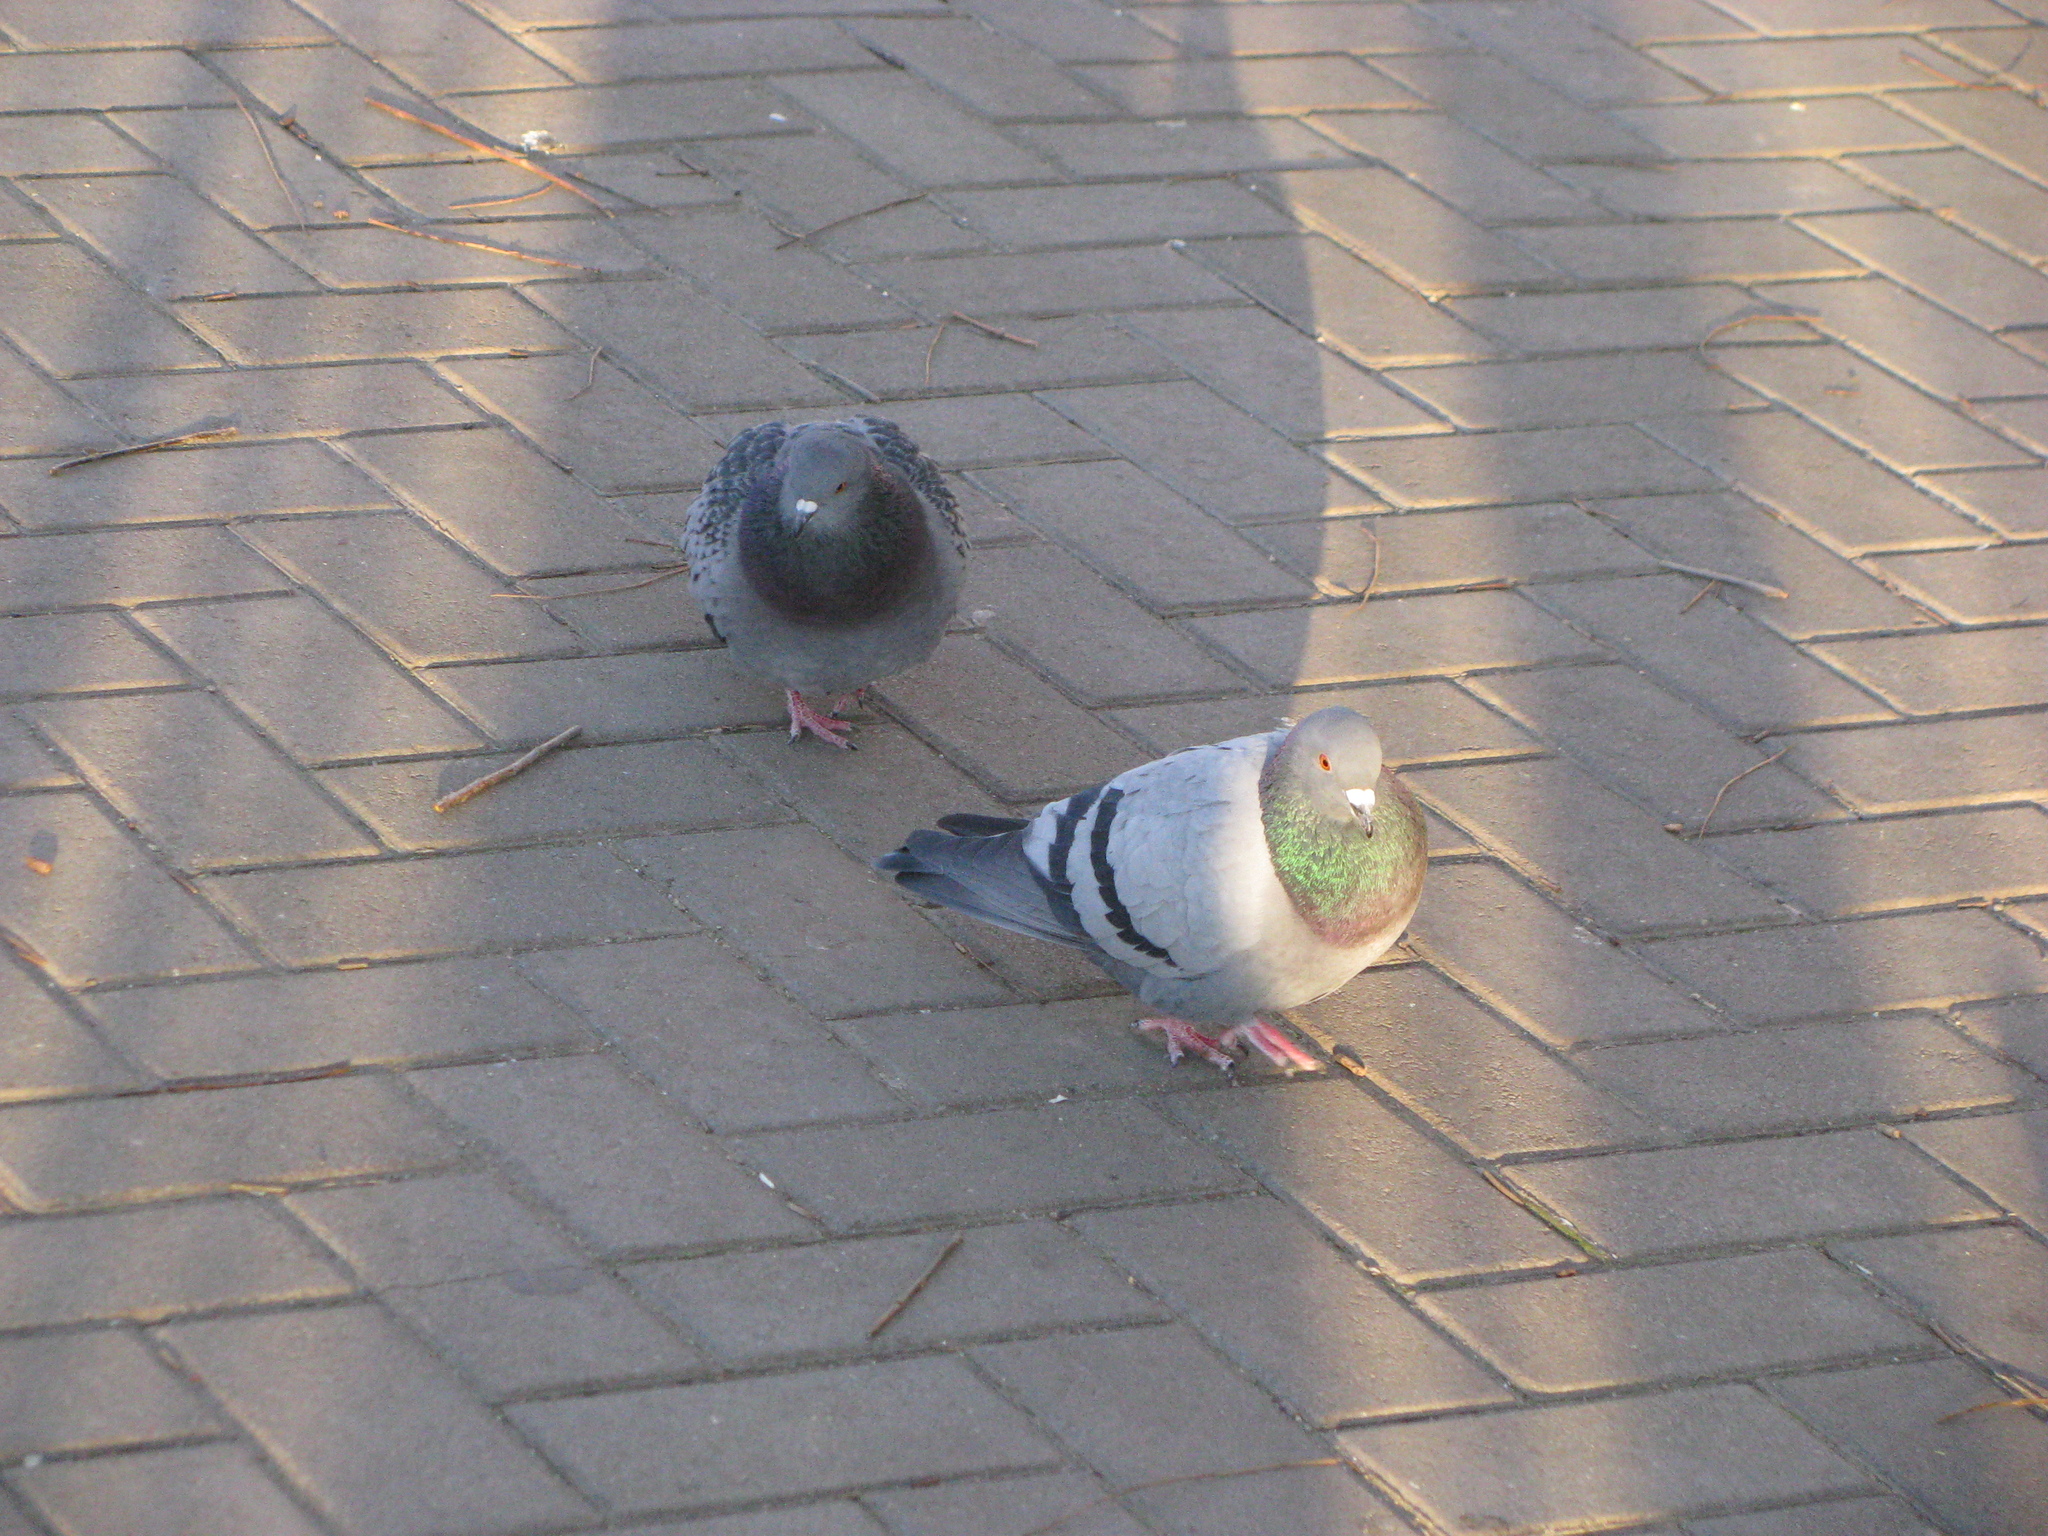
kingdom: Animalia
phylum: Chordata
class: Aves
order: Columbiformes
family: Columbidae
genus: Columba
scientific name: Columba livia
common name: Rock pigeon
